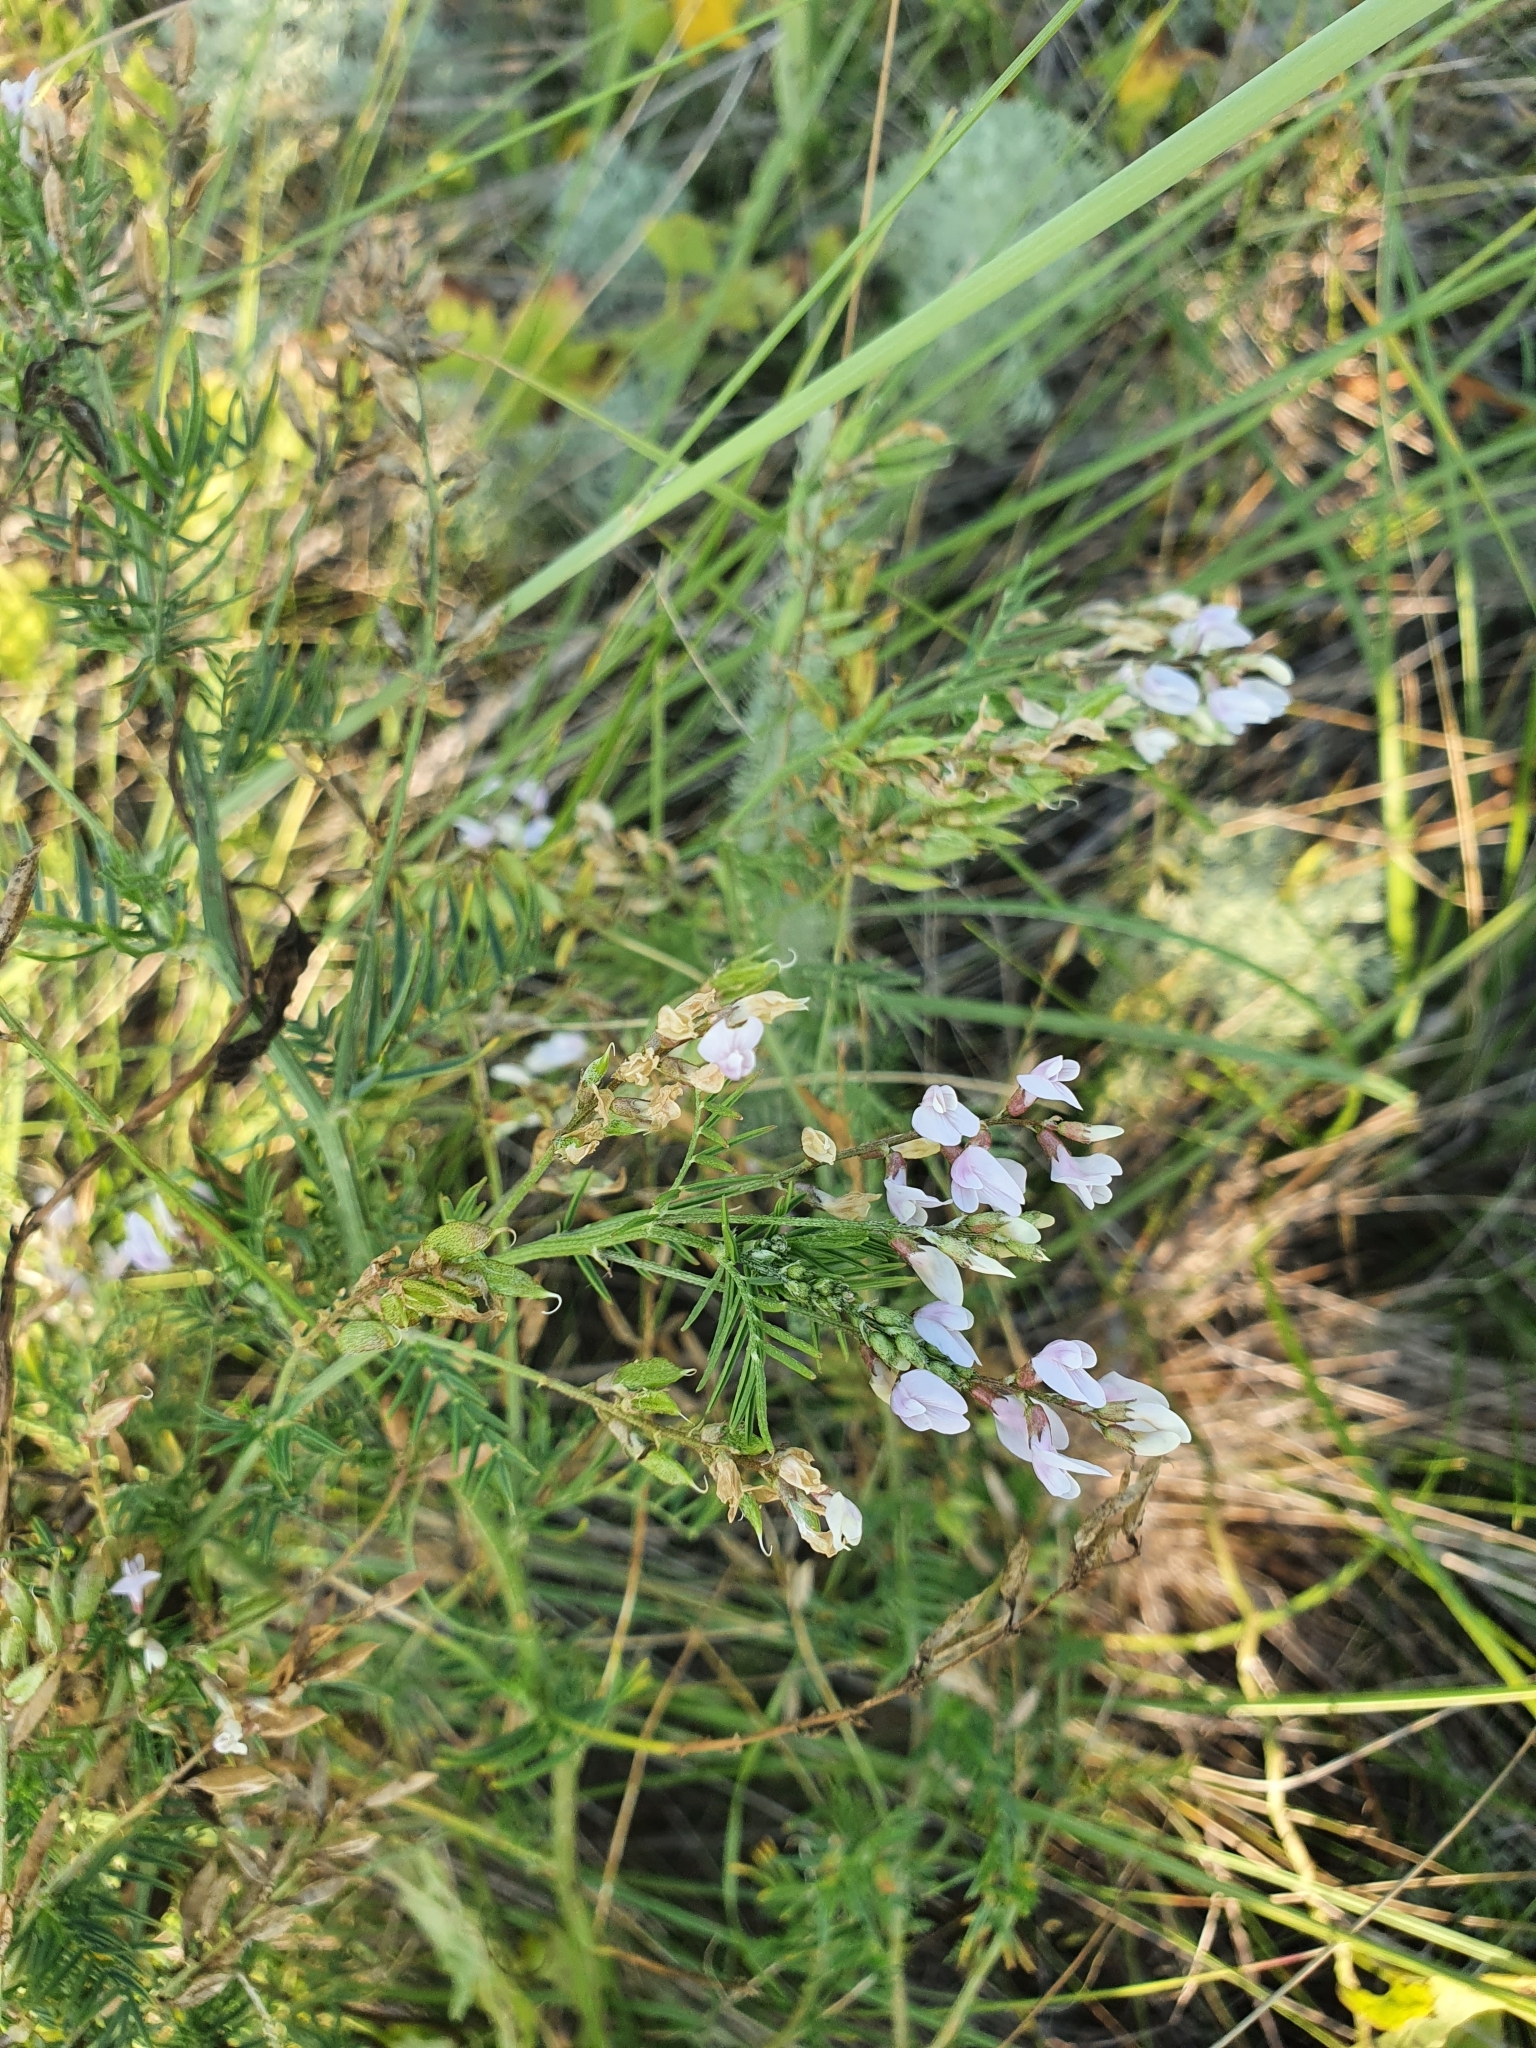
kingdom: Plantae
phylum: Tracheophyta
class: Magnoliopsida
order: Fabales
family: Fabaceae
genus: Astragalus
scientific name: Astragalus sulcatus
